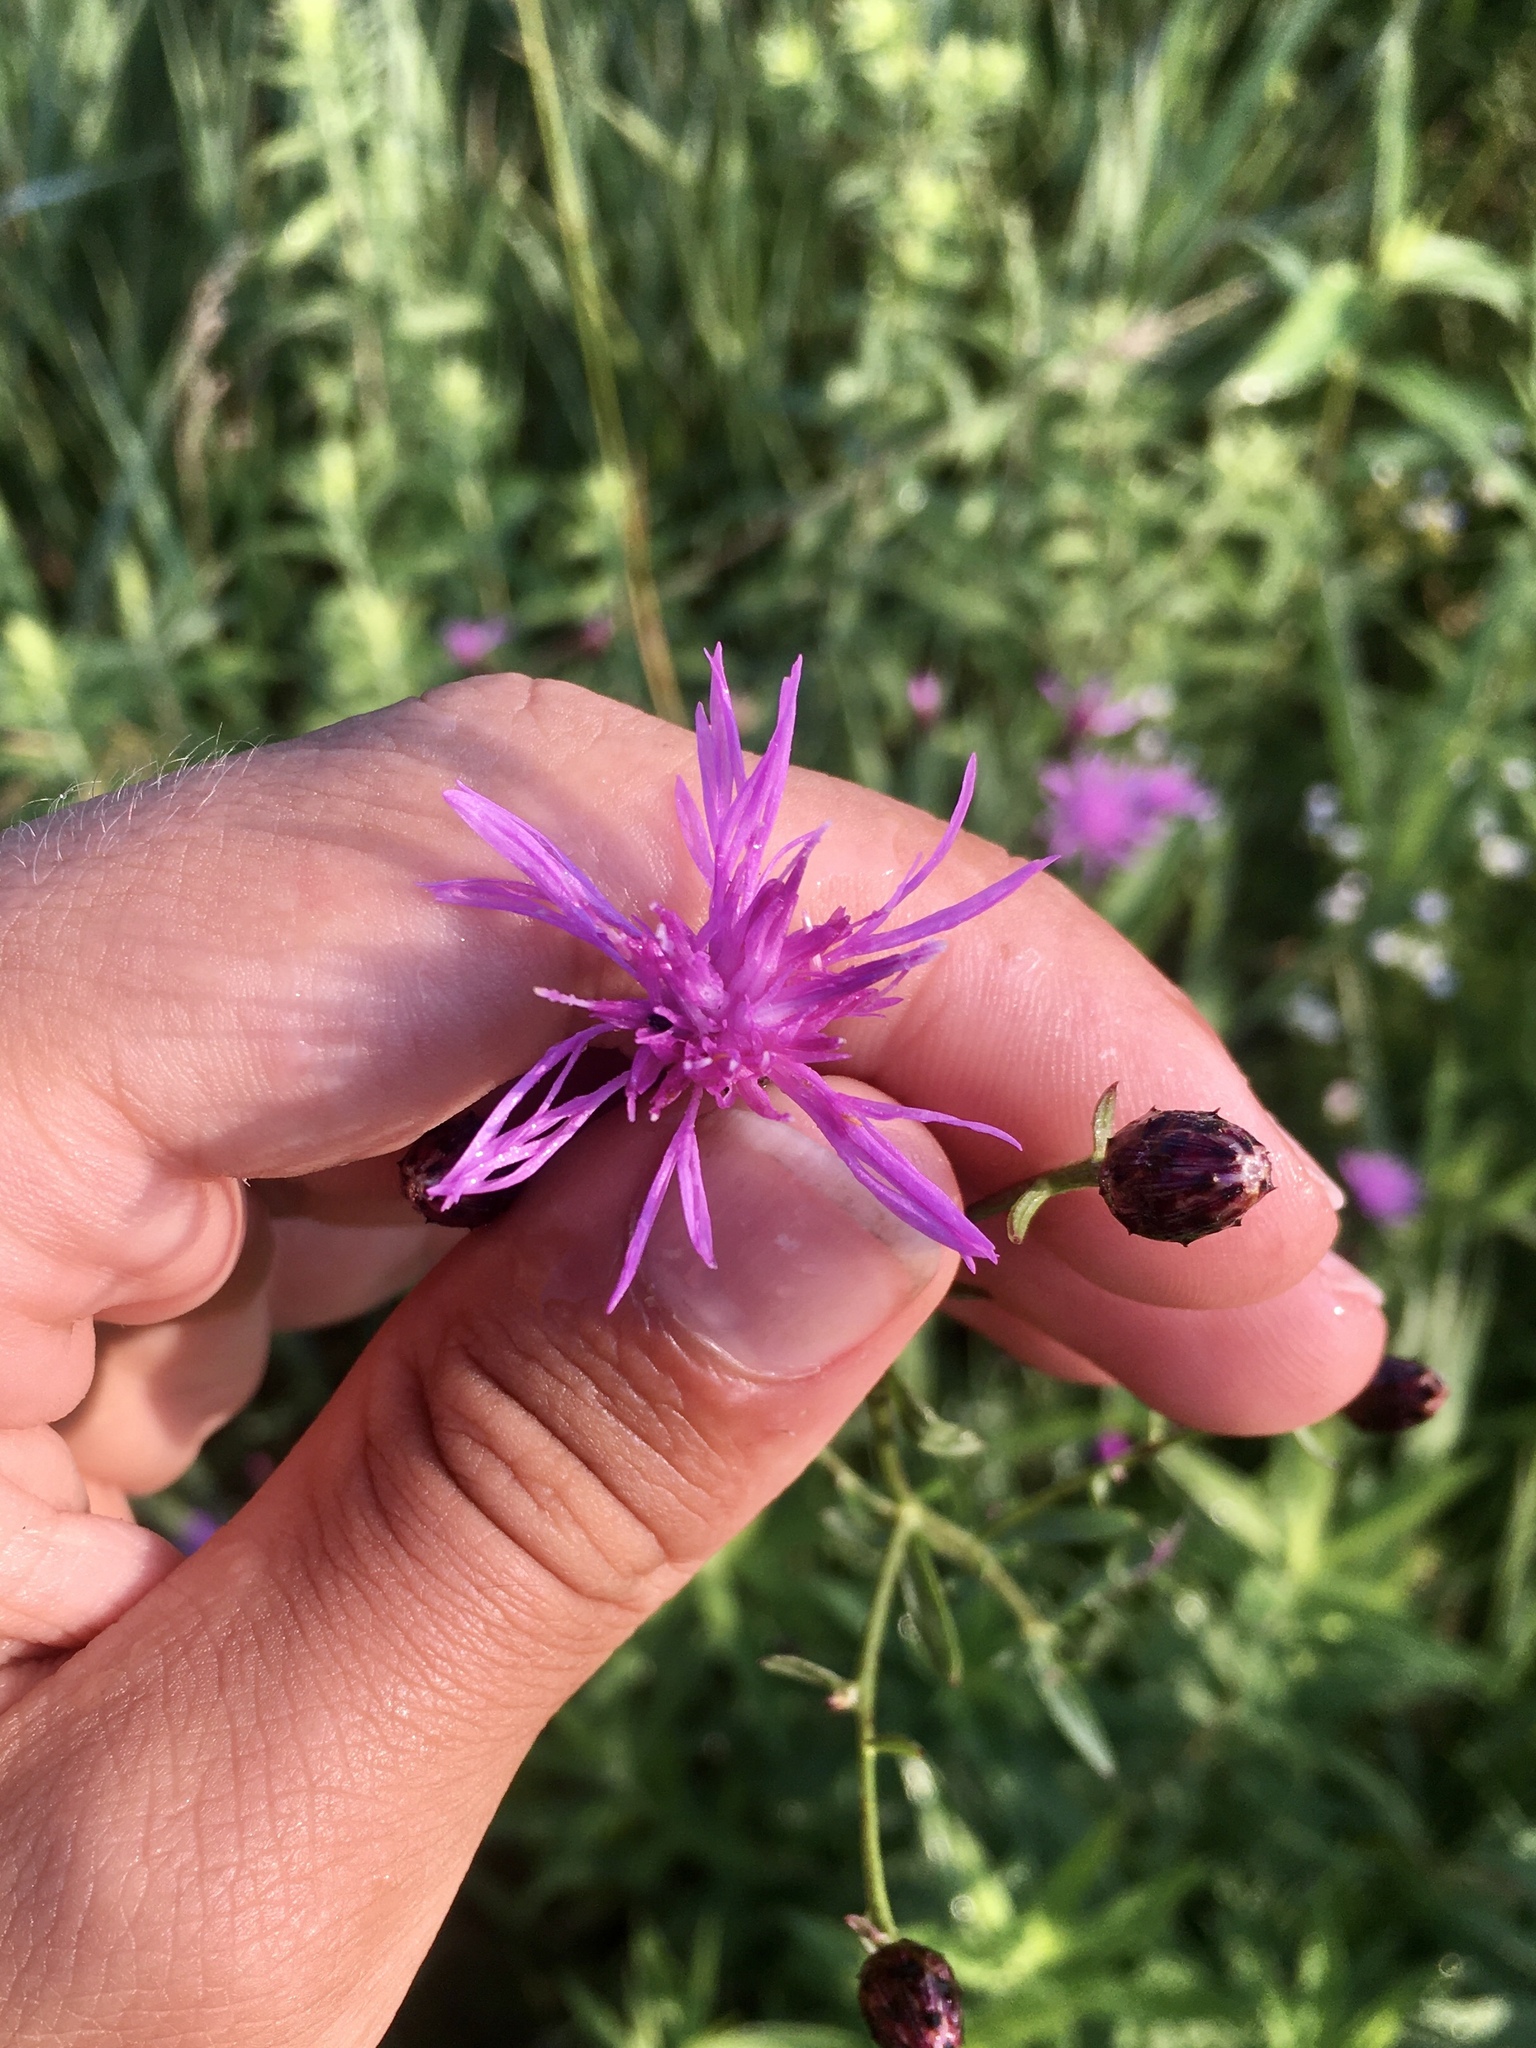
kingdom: Plantae
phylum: Tracheophyta
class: Magnoliopsida
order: Asterales
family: Asteraceae
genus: Centaurea
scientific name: Centaurea stoebe
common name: Spotted knapweed
